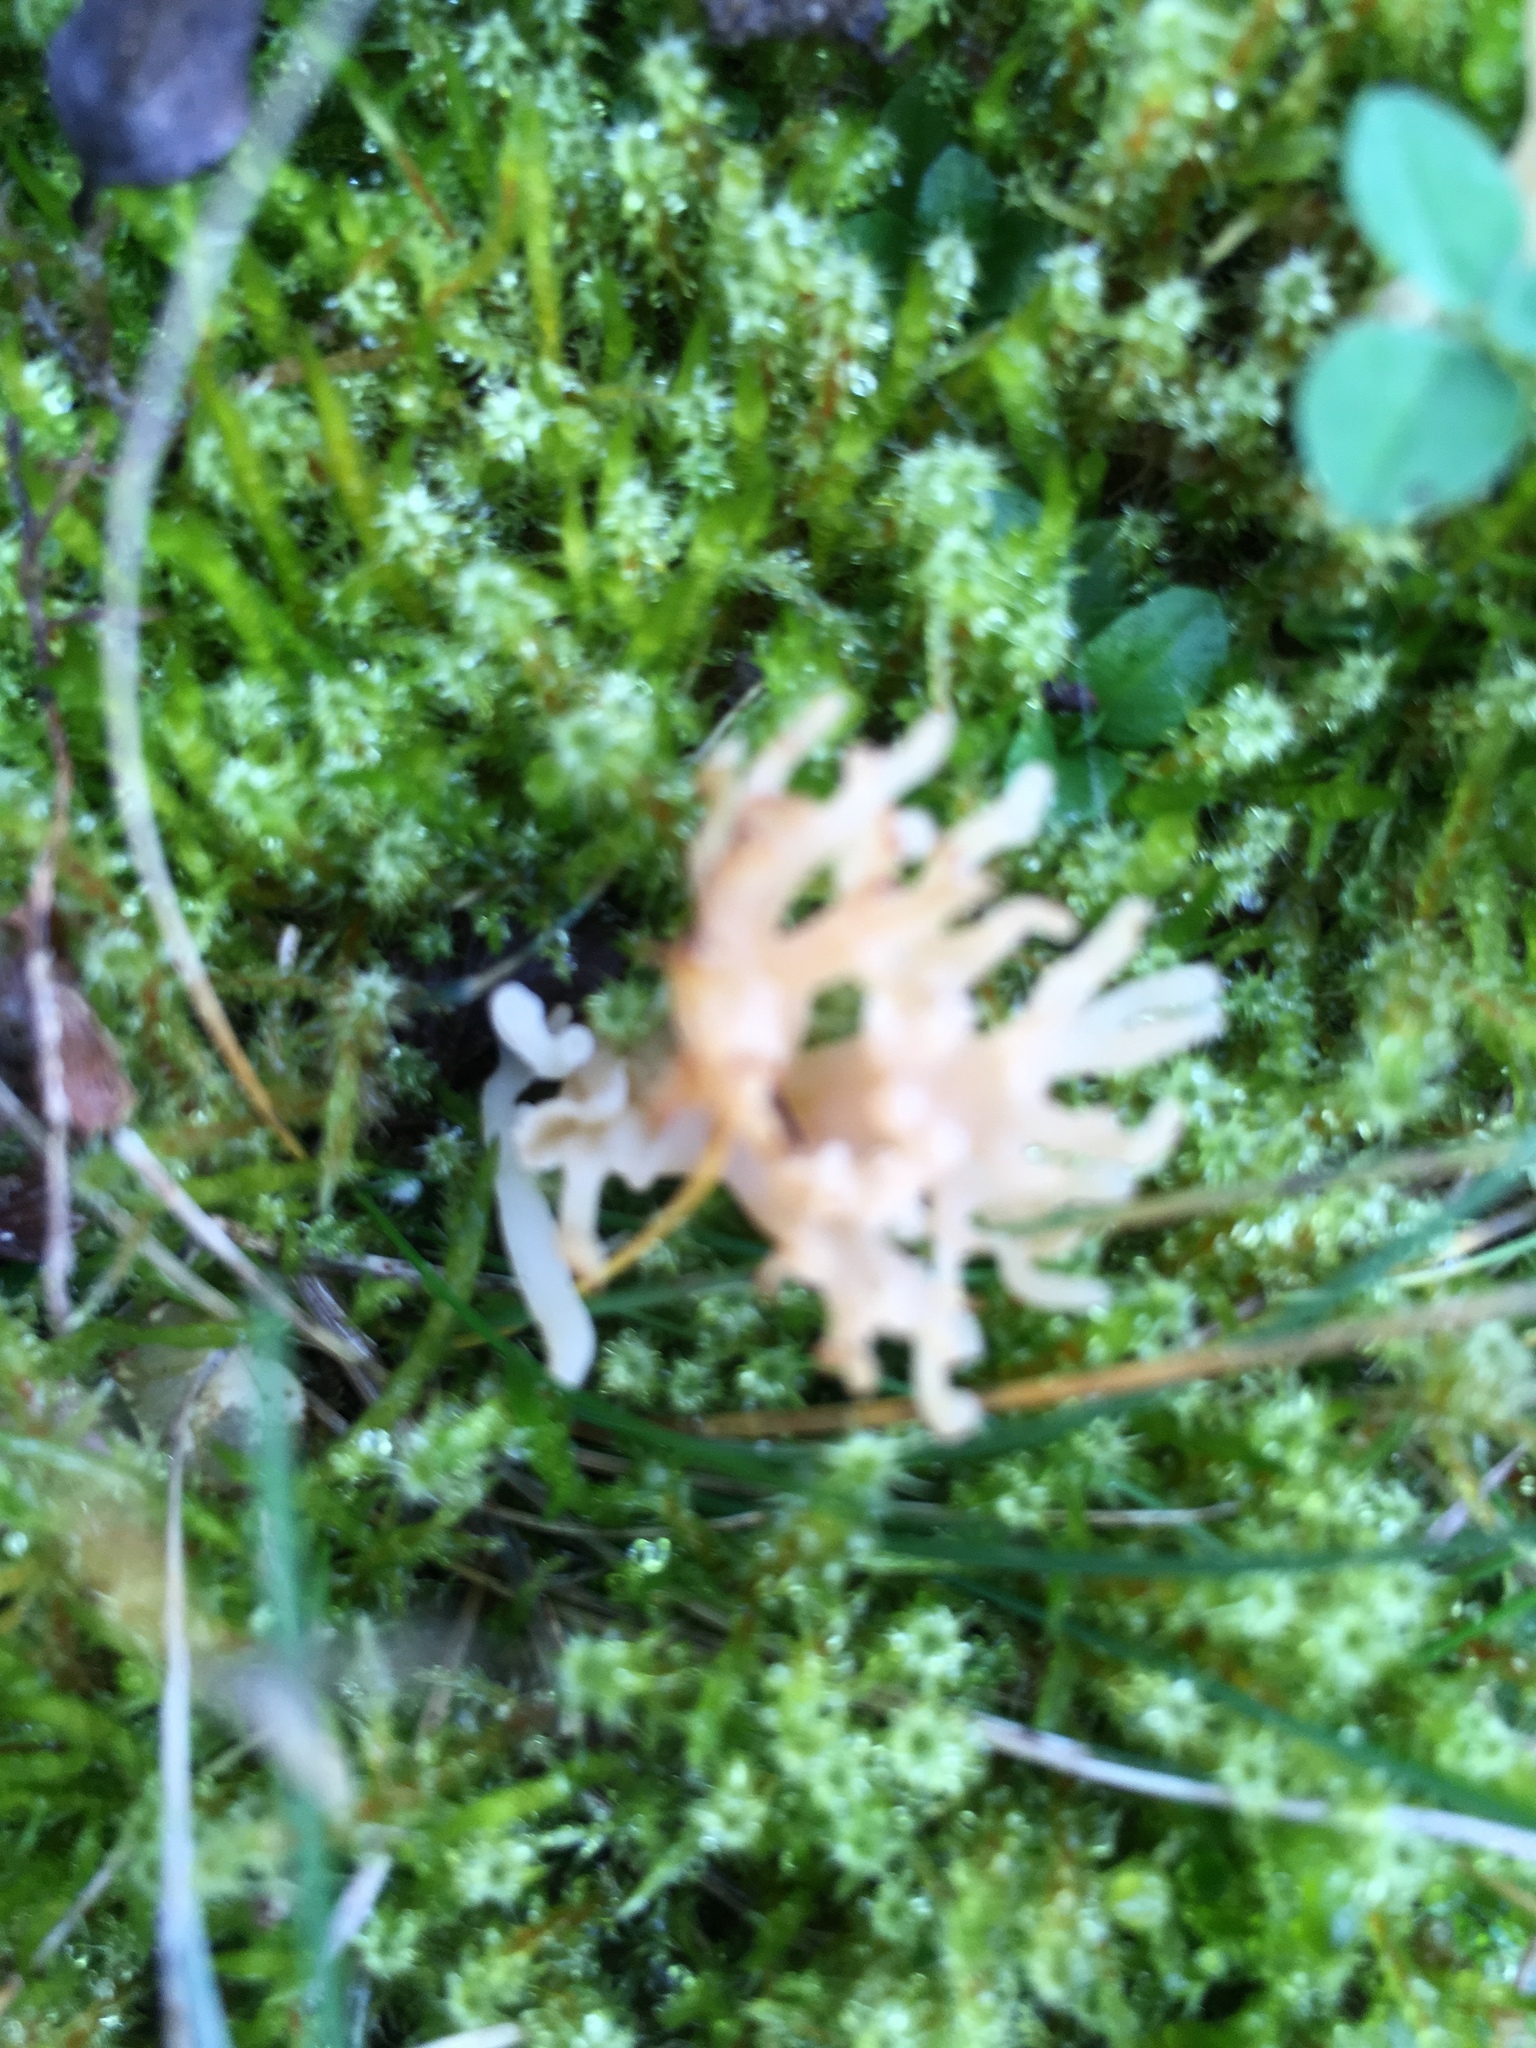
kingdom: Fungi
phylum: Basidiomycota
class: Agaricomycetes
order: Cantharellales
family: Hydnaceae
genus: Clavulina
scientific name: Clavulina coralloides
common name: Crested coral
